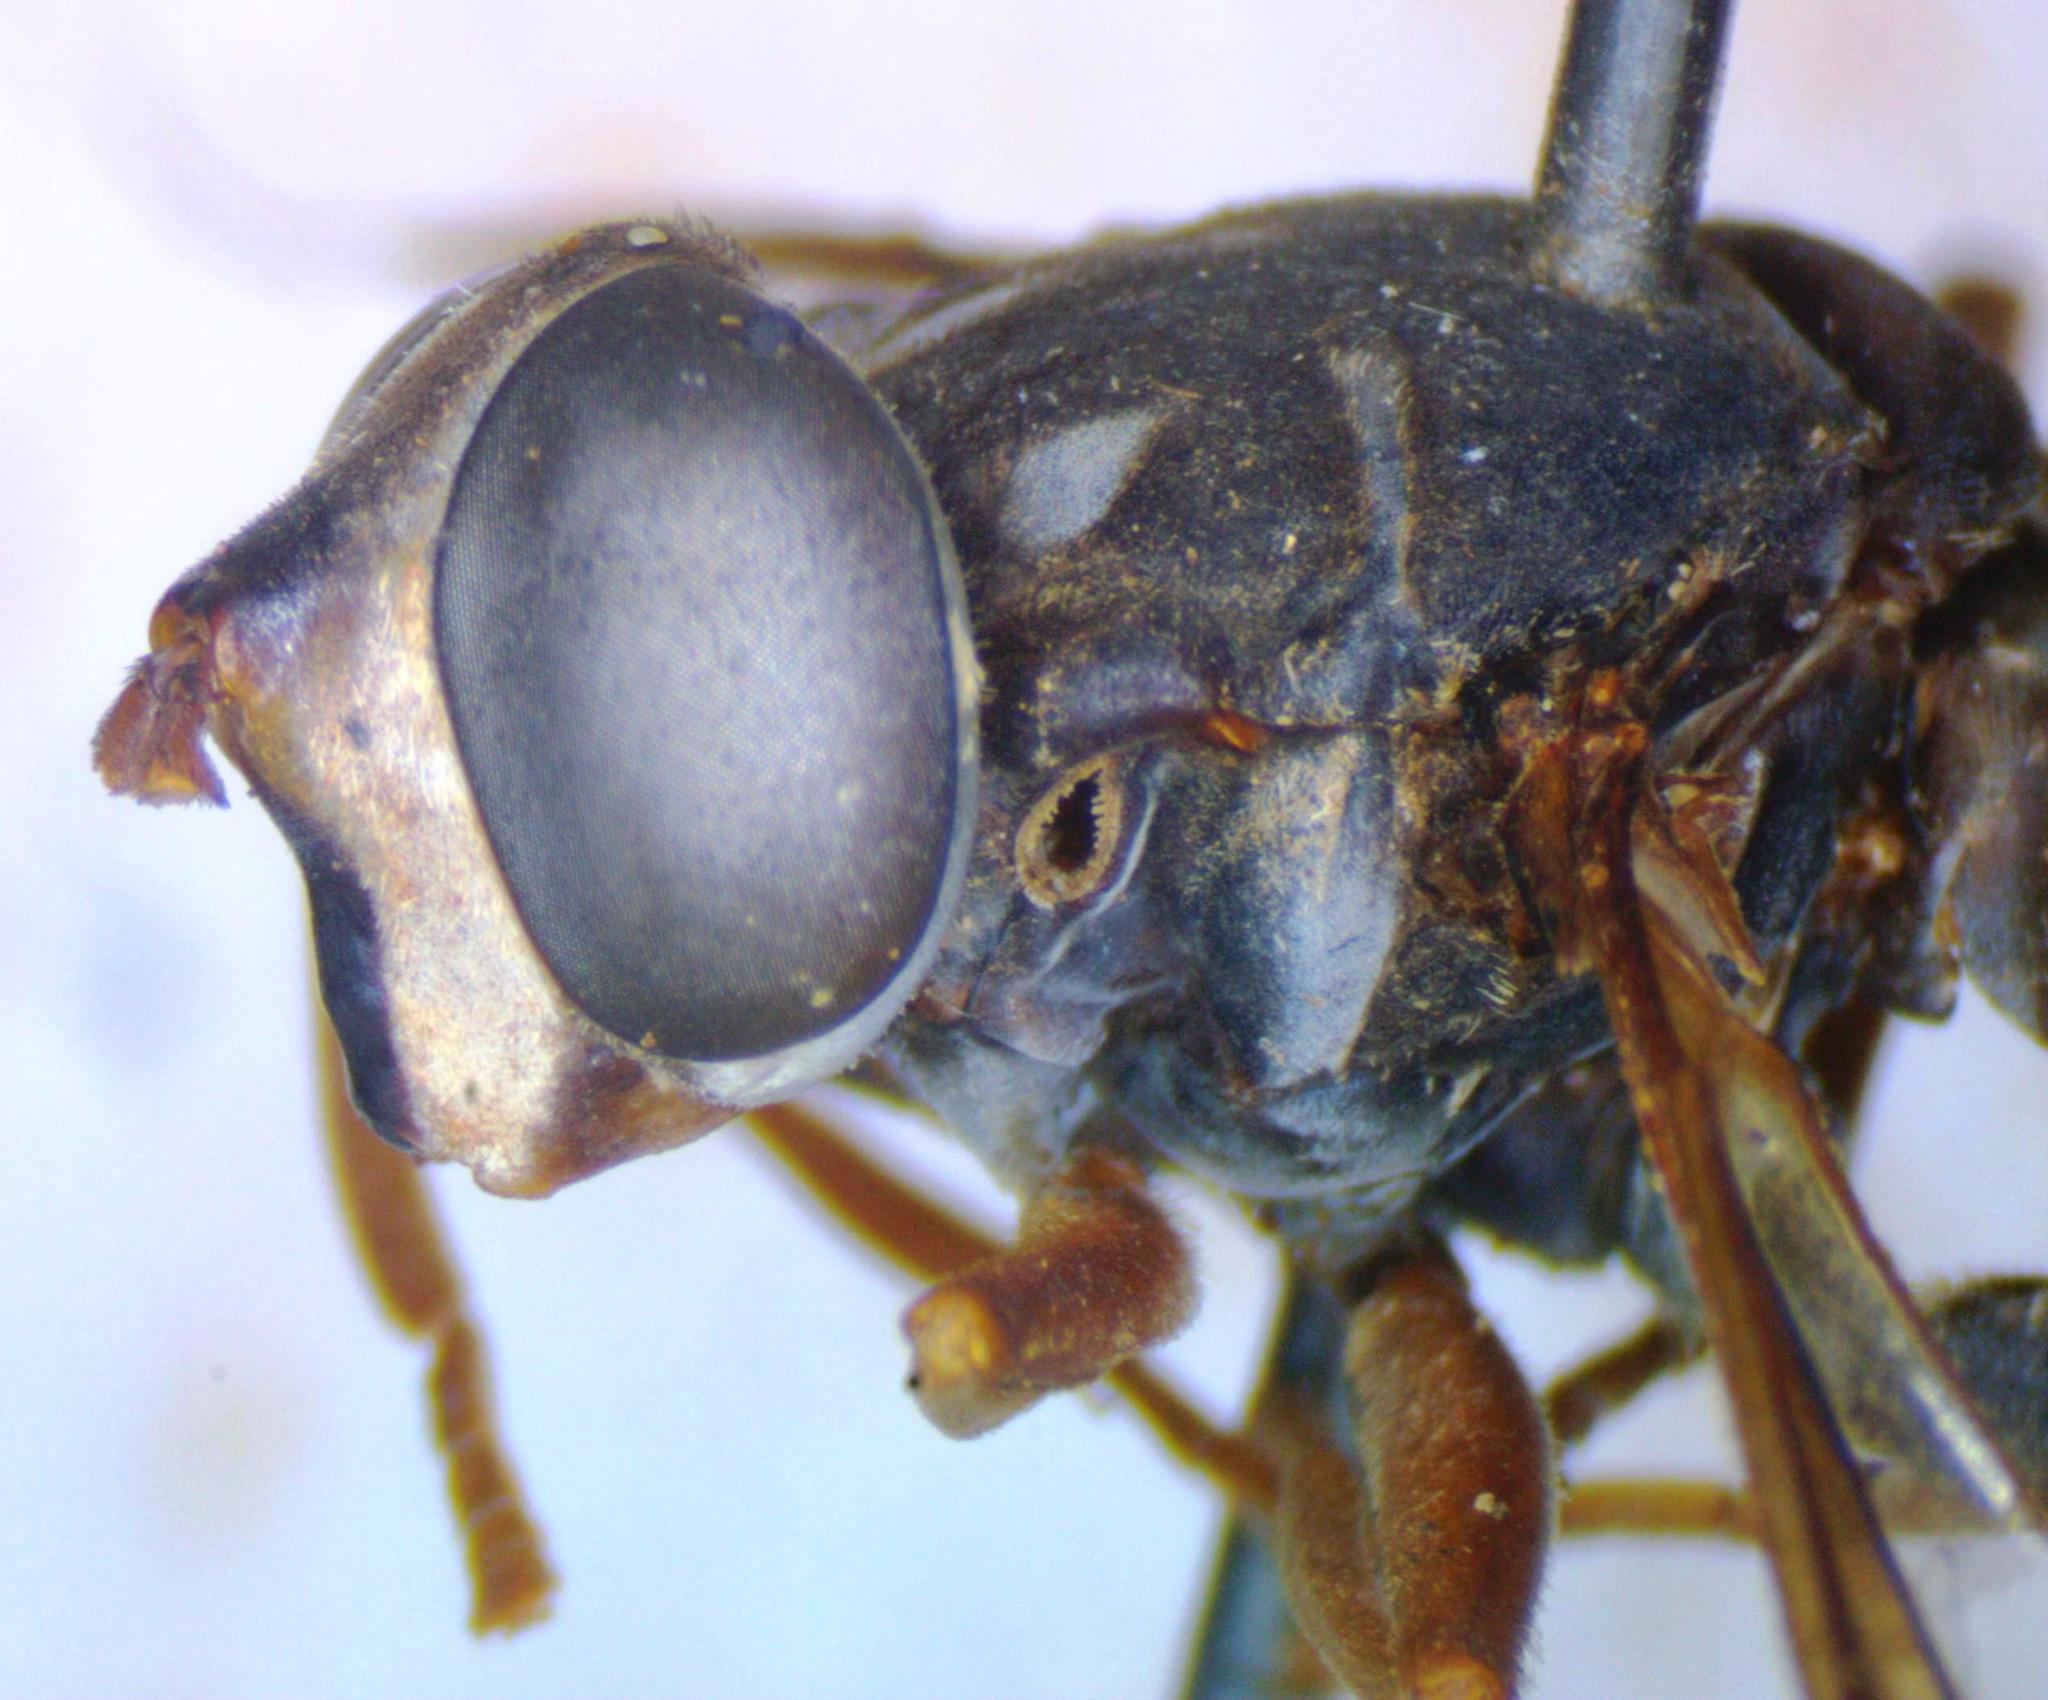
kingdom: Animalia
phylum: Arthropoda
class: Insecta
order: Diptera
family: Syrphidae
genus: Meromacrus
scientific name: Meromacrus laconicus
